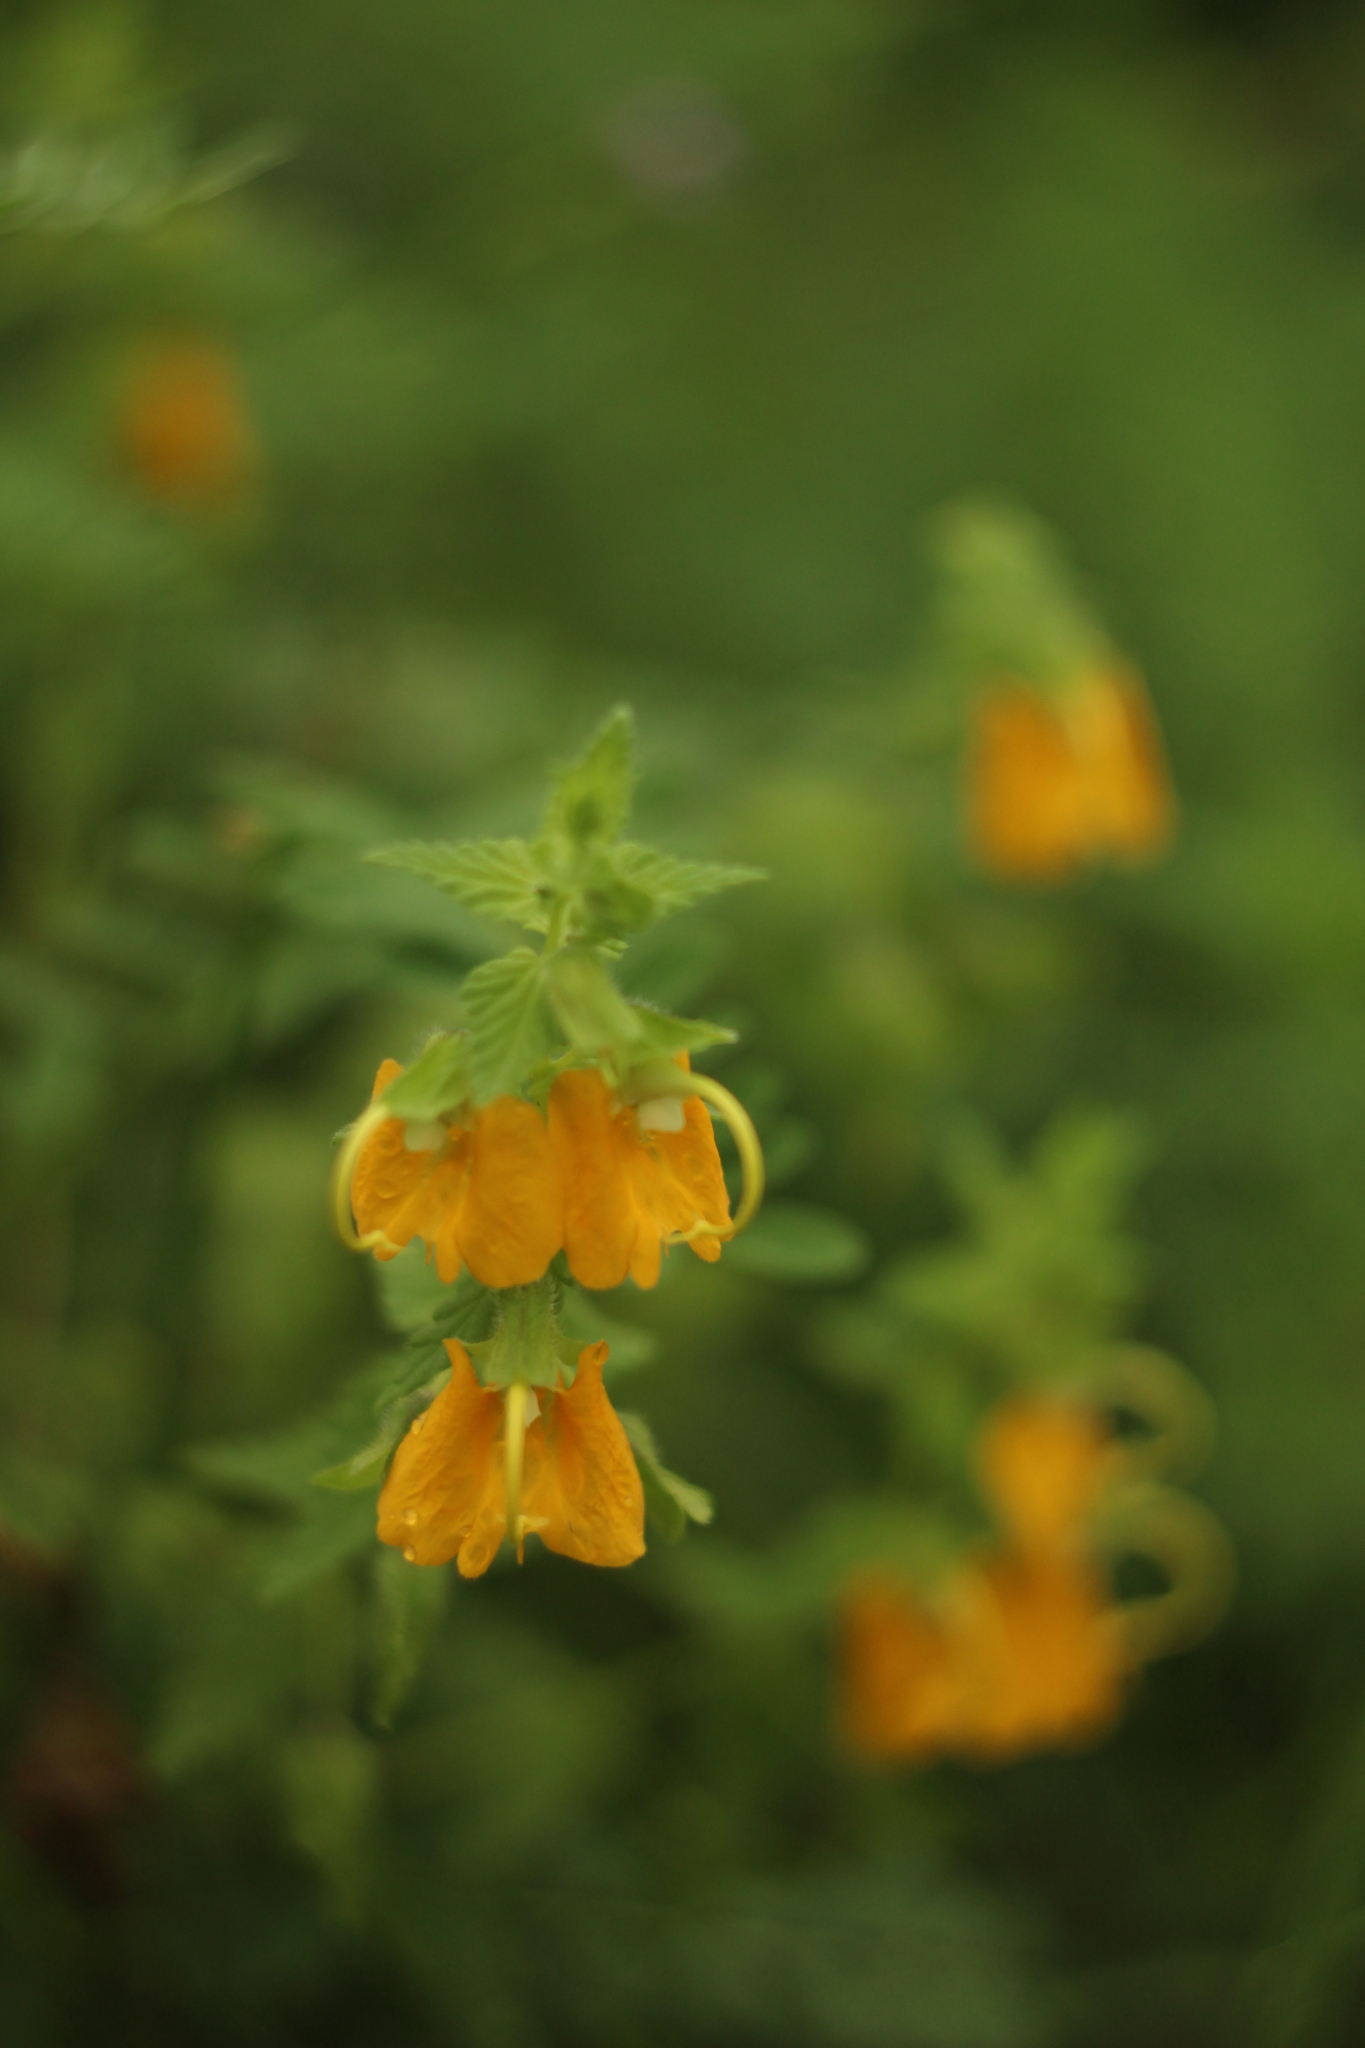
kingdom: Plantae
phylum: Tracheophyta
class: Magnoliopsida
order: Lamiales
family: Orobanchaceae
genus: Rhynchocorys
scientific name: Rhynchocorys orientalis
